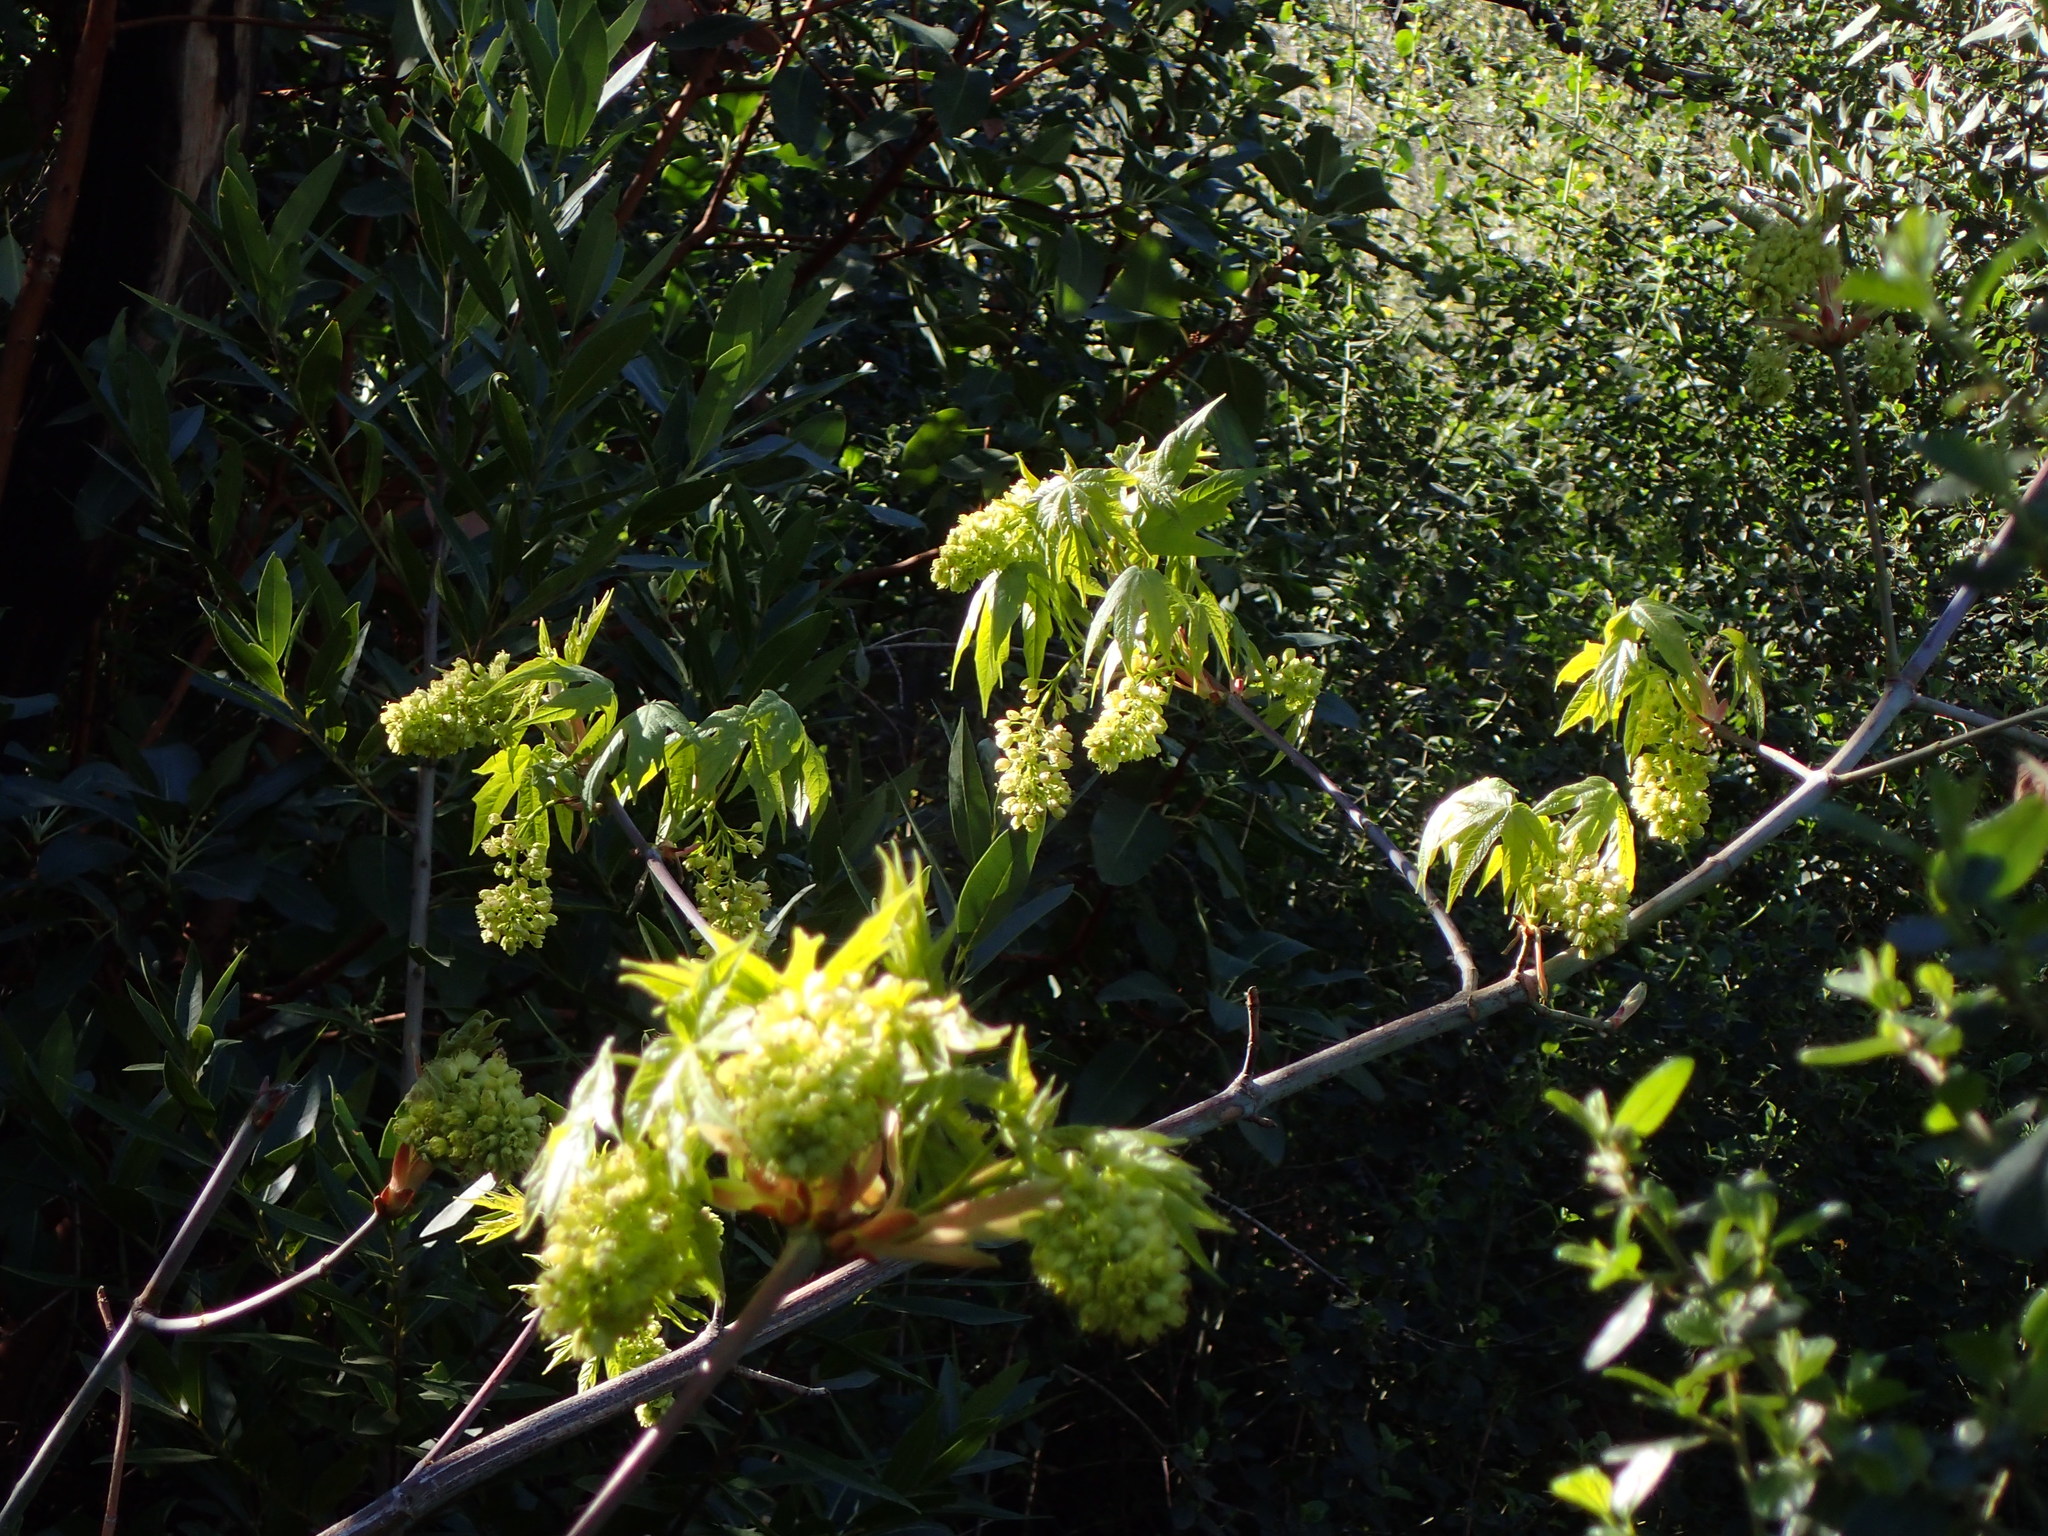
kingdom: Plantae
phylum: Tracheophyta
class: Magnoliopsida
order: Sapindales
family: Sapindaceae
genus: Acer
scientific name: Acer macrophyllum
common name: Oregon maple
